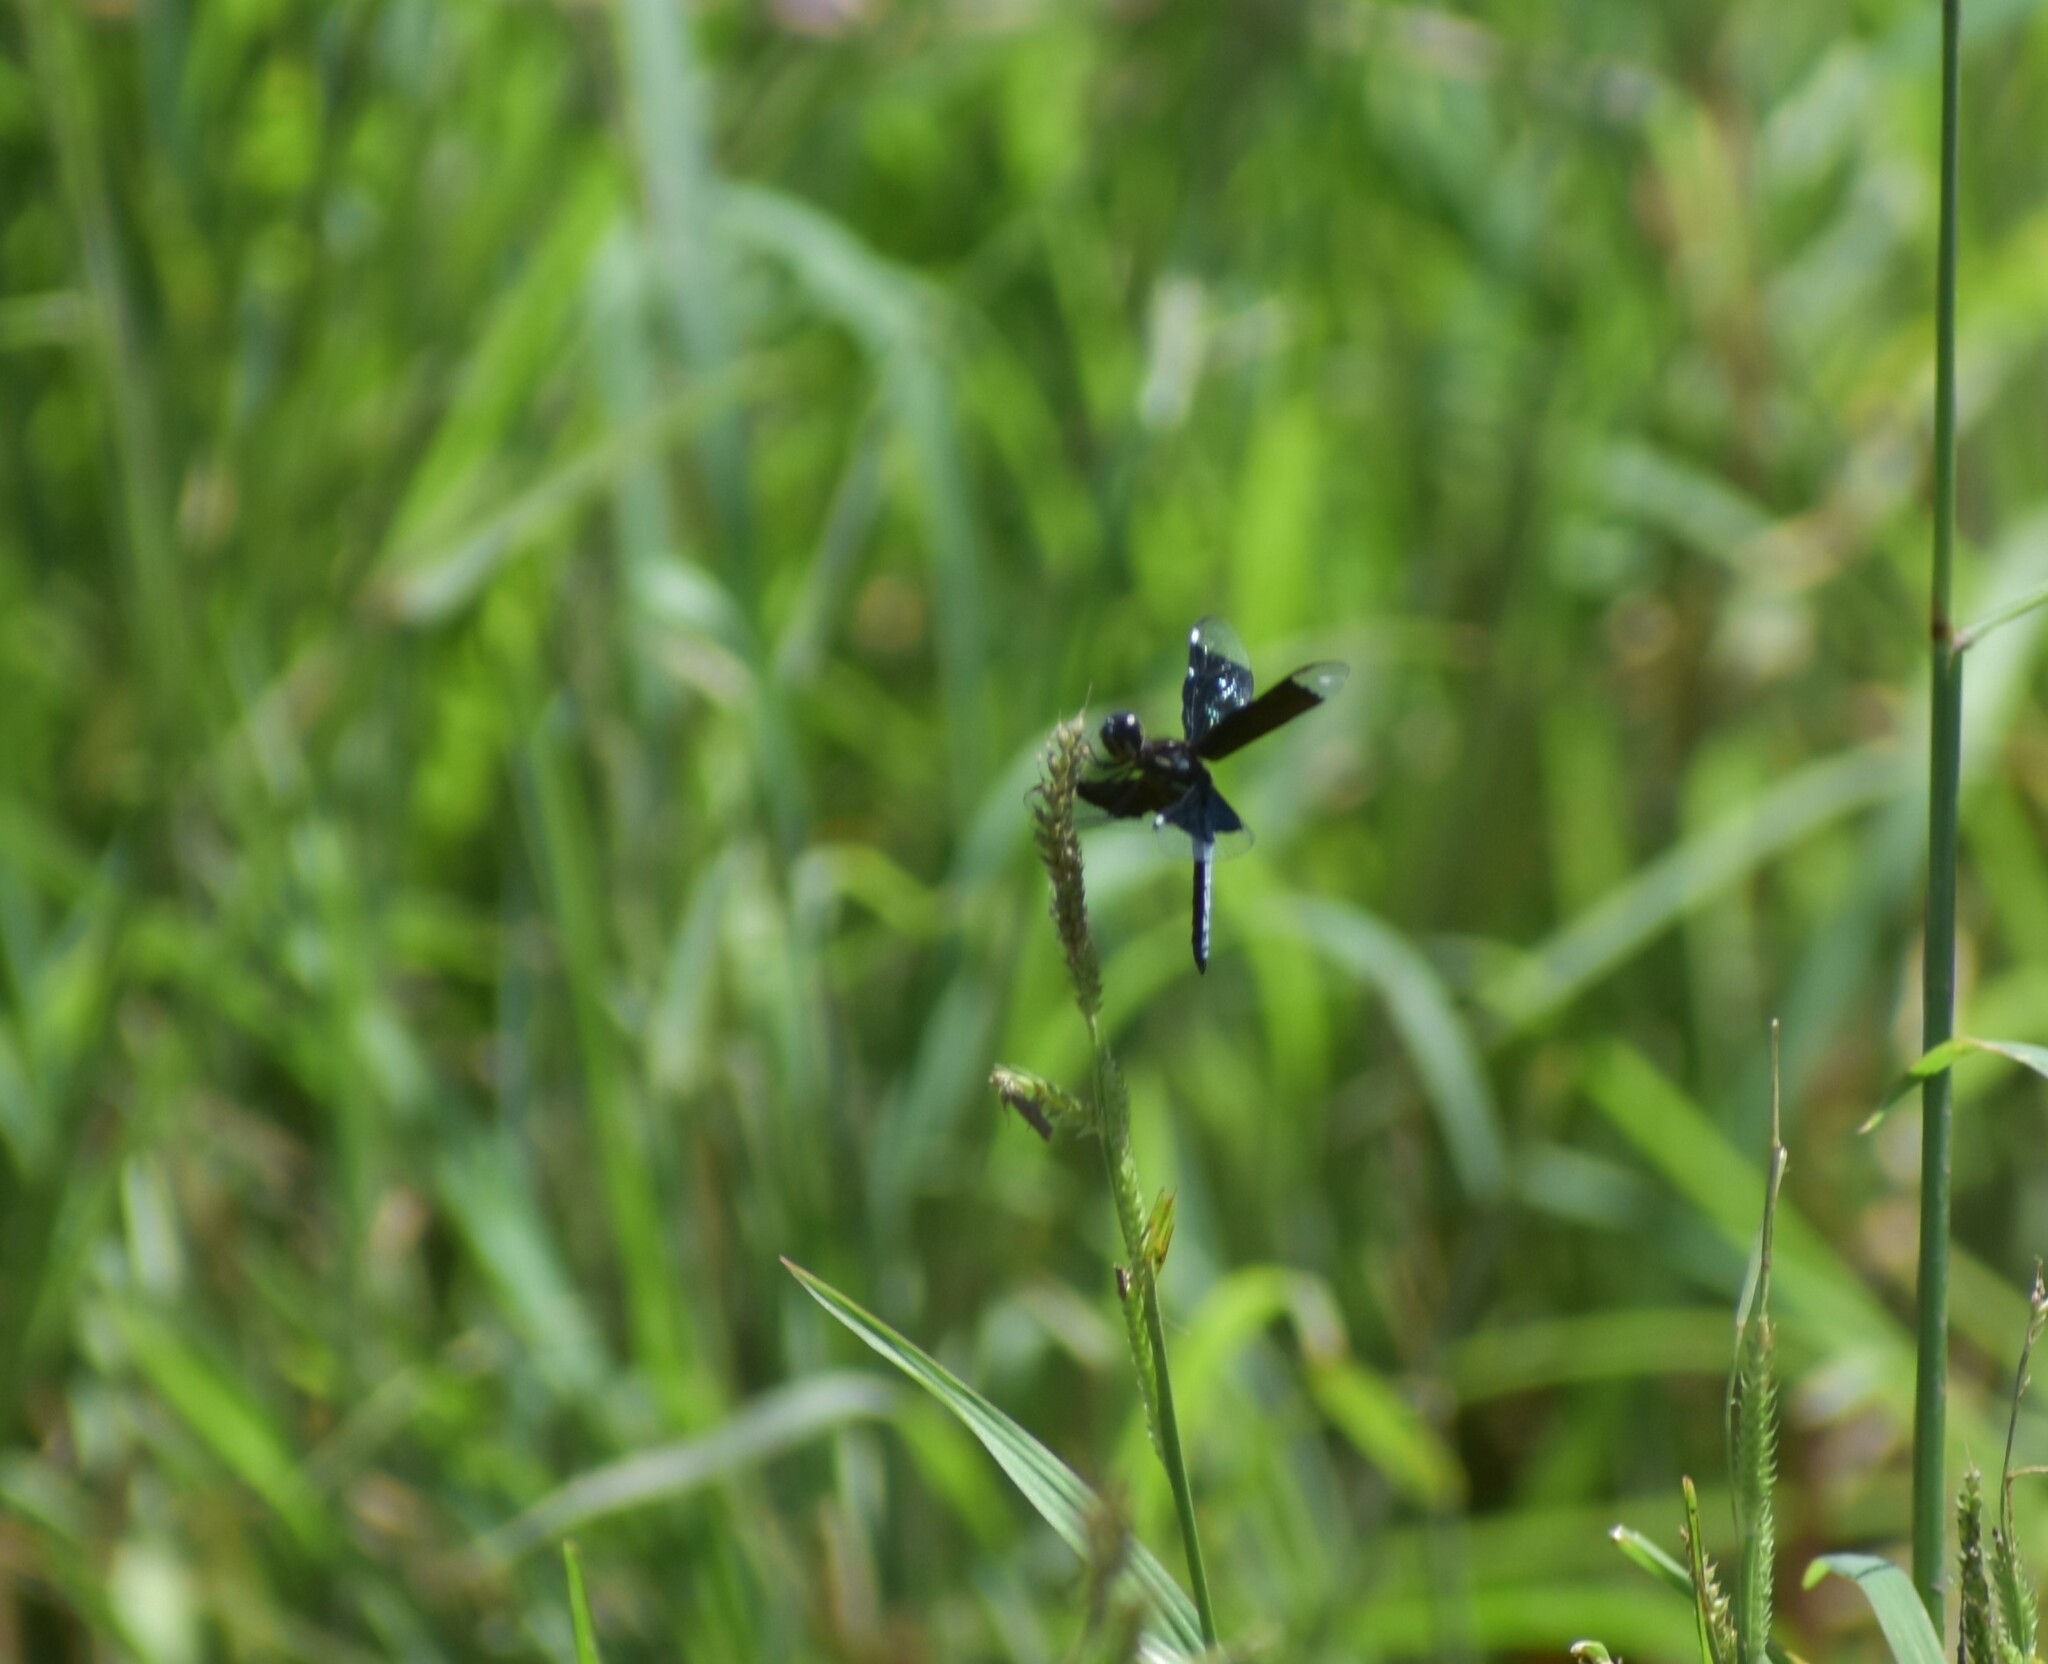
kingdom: Animalia
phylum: Arthropoda
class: Insecta
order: Odonata
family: Libellulidae
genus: Palpopleura
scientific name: Palpopleura lucia
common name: Lucia widow
